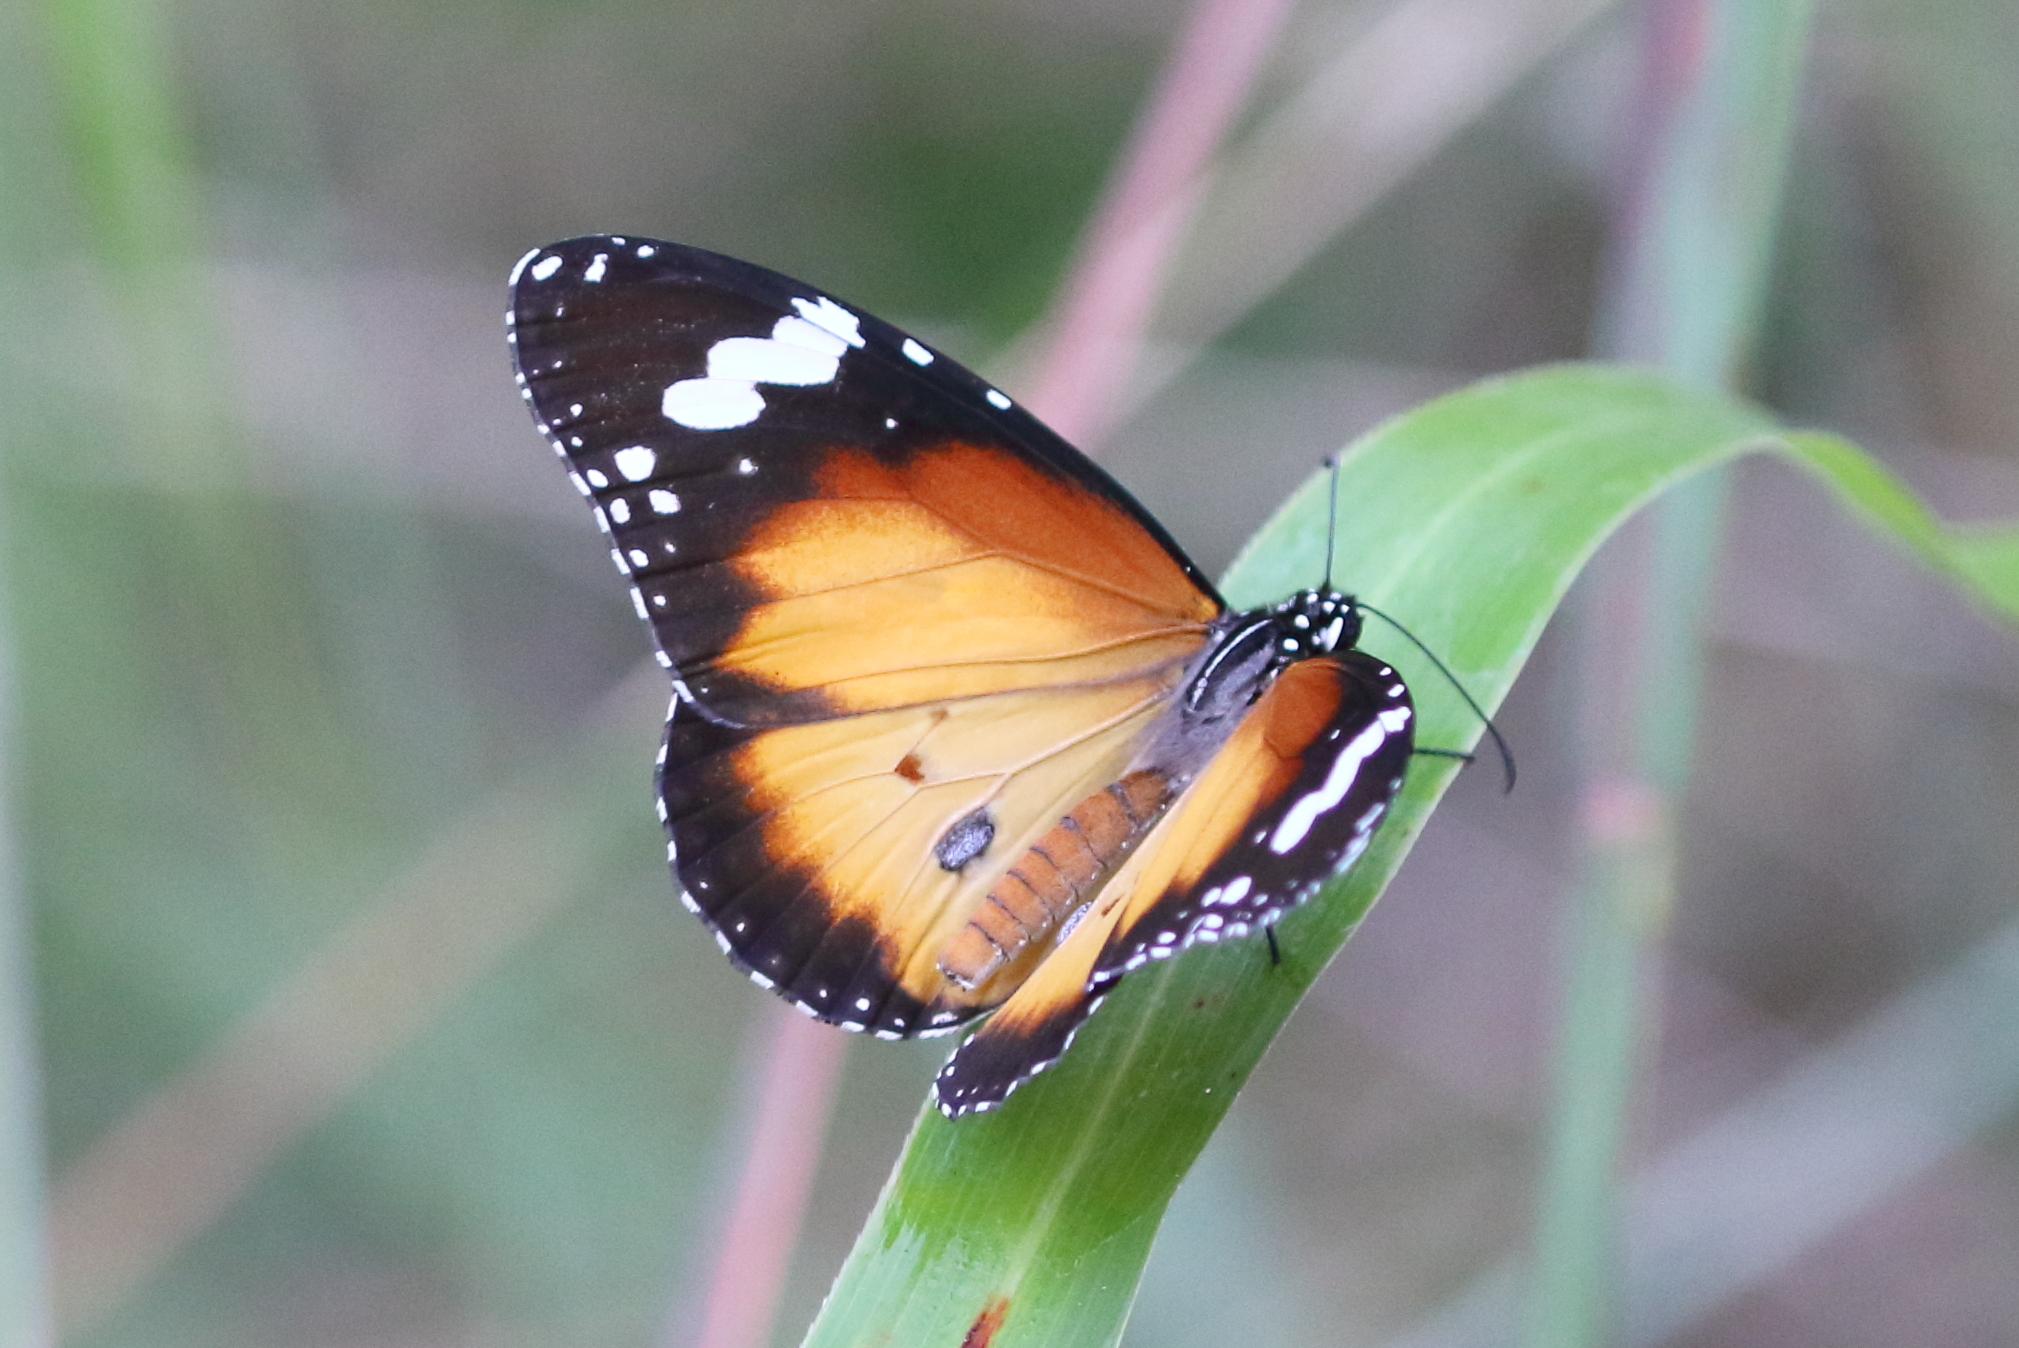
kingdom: Animalia
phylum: Arthropoda
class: Insecta
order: Lepidoptera
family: Nymphalidae
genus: Danaus
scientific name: Danaus chrysippus
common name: Plain tiger
